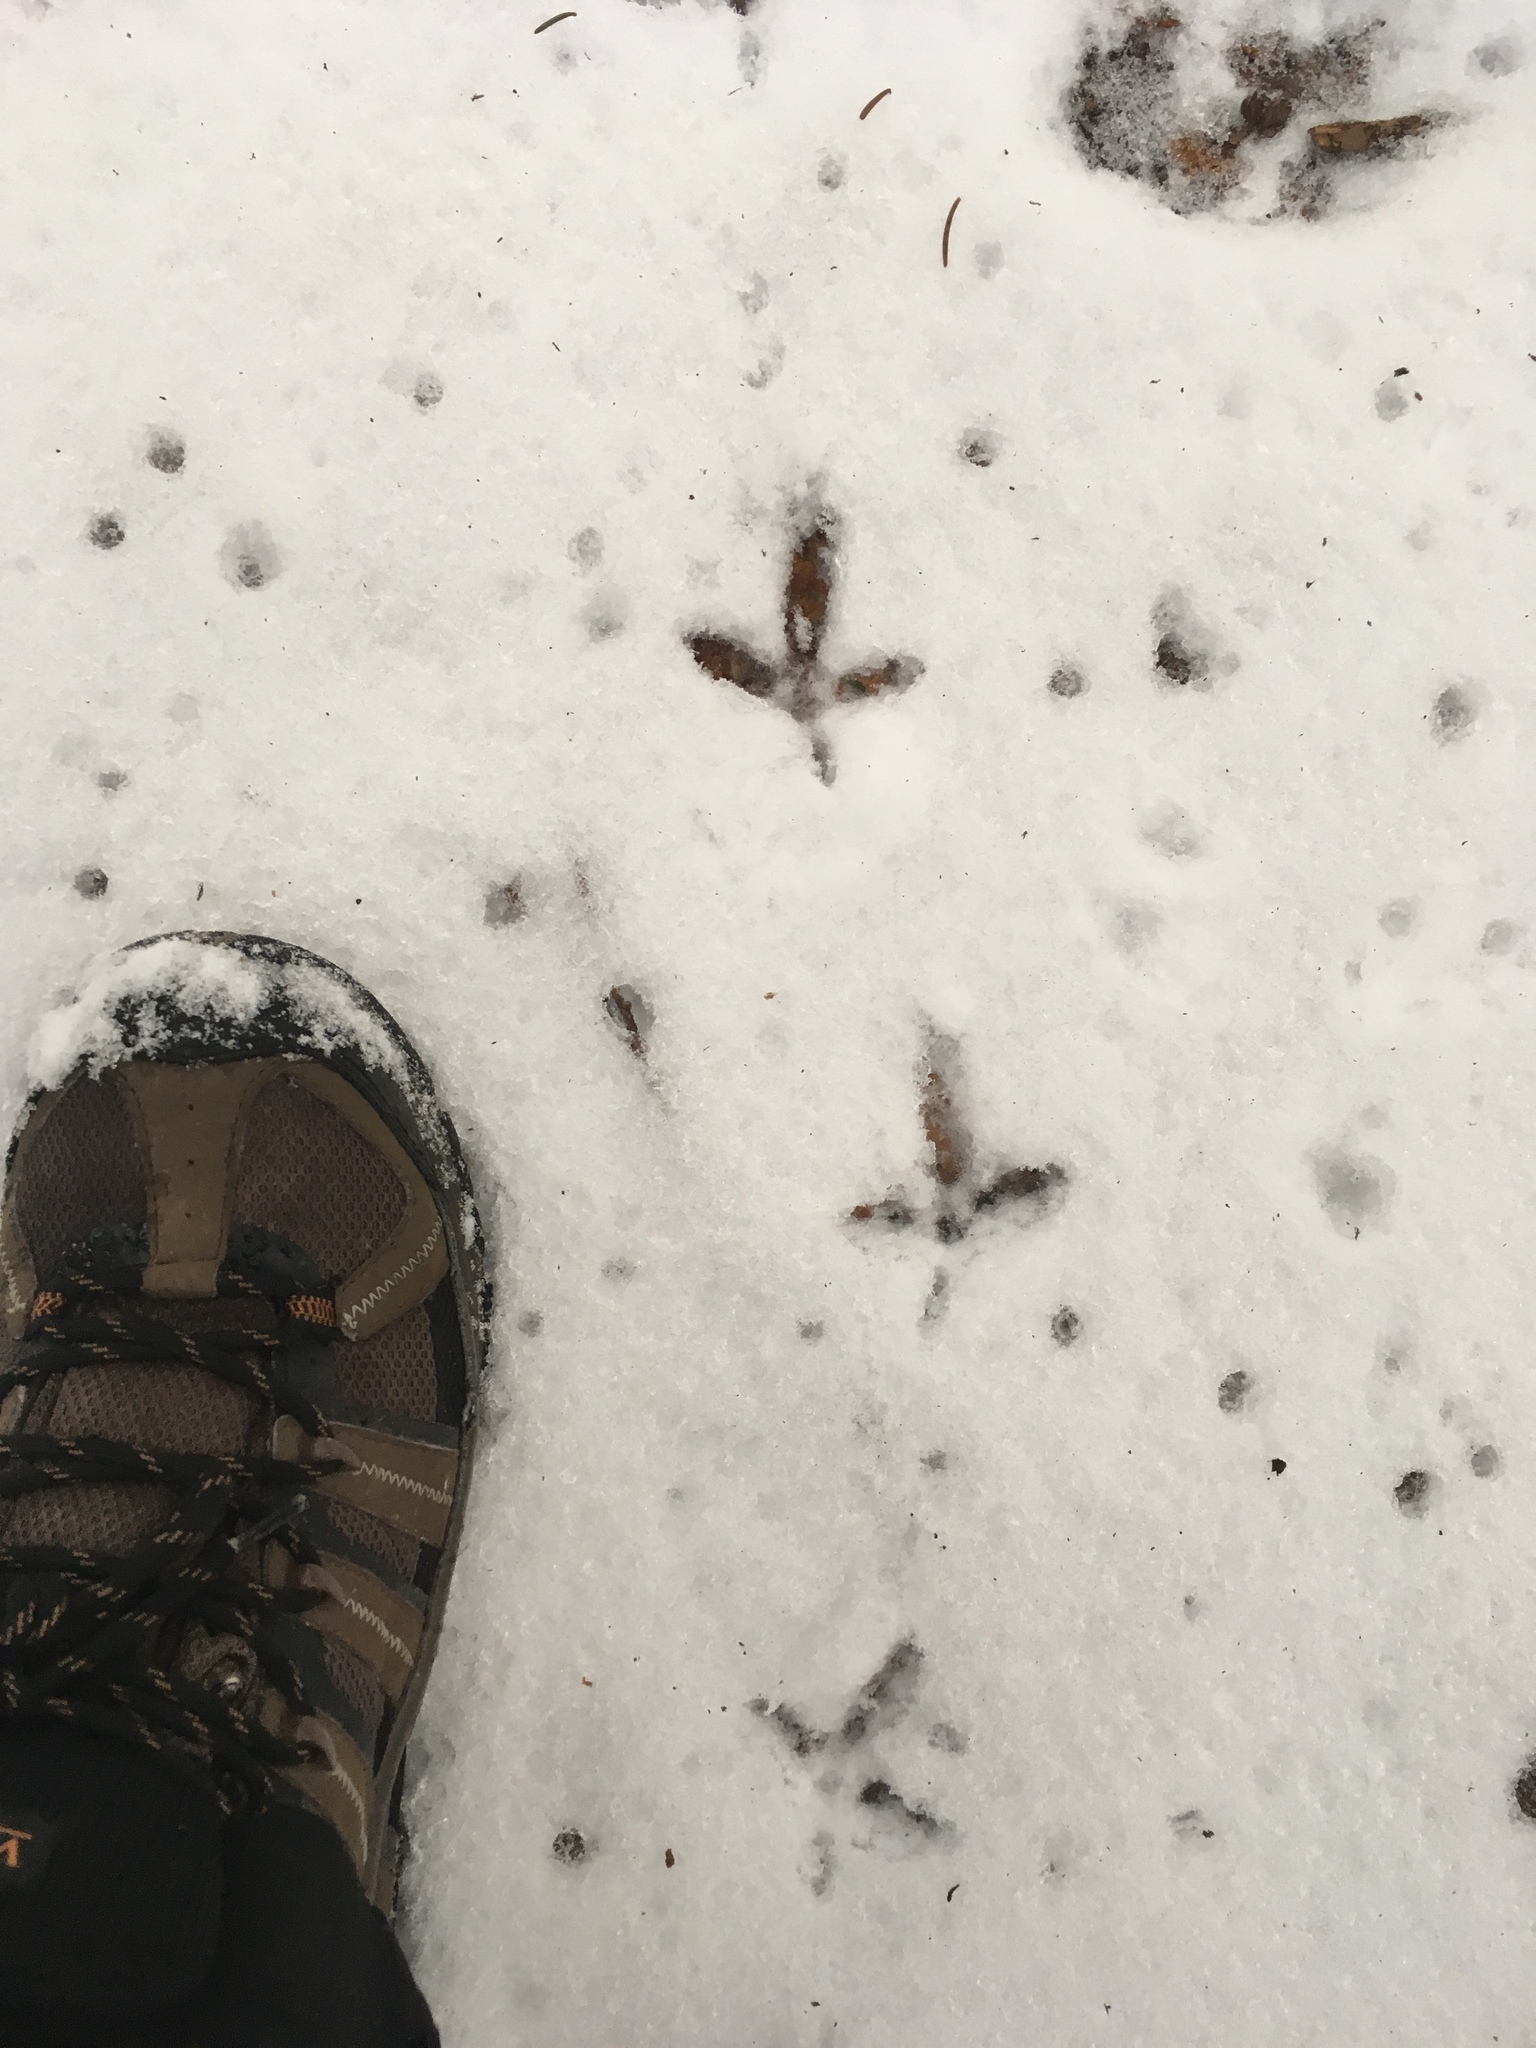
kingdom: Animalia
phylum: Chordata
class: Aves
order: Galliformes
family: Phasianidae
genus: Bonasa
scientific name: Bonasa umbellus
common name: Ruffed grouse
